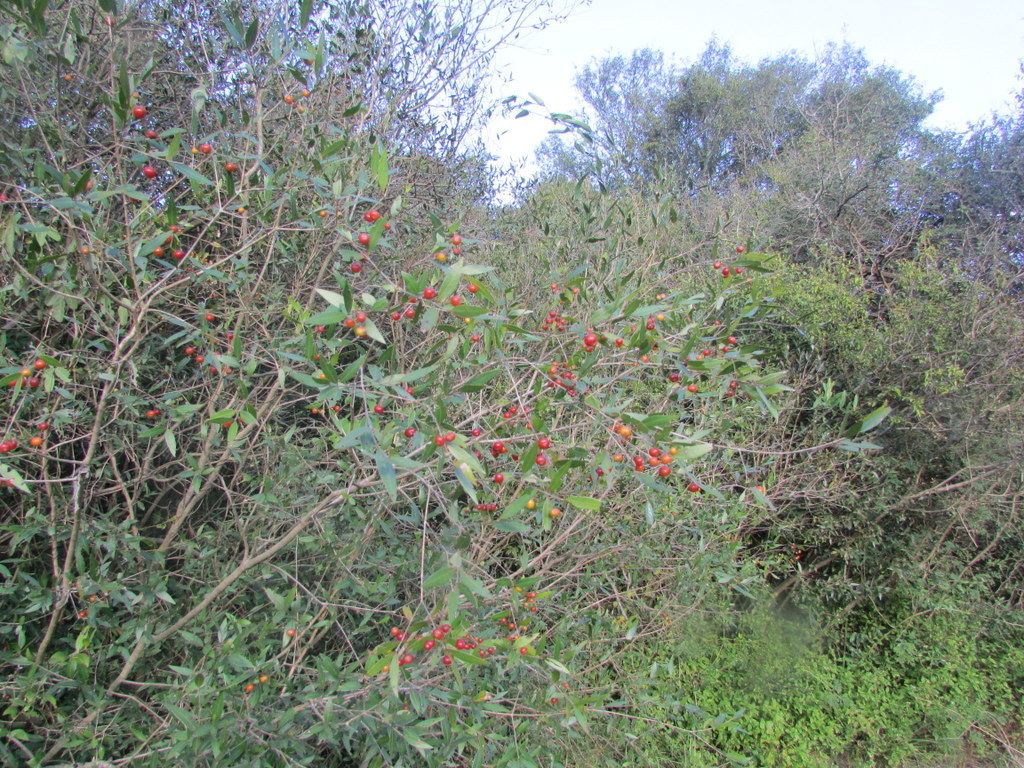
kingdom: Plantae
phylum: Tracheophyta
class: Magnoliopsida
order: Myrtales
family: Myrtaceae
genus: Blepharocalyx
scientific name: Blepharocalyx salicifolius
